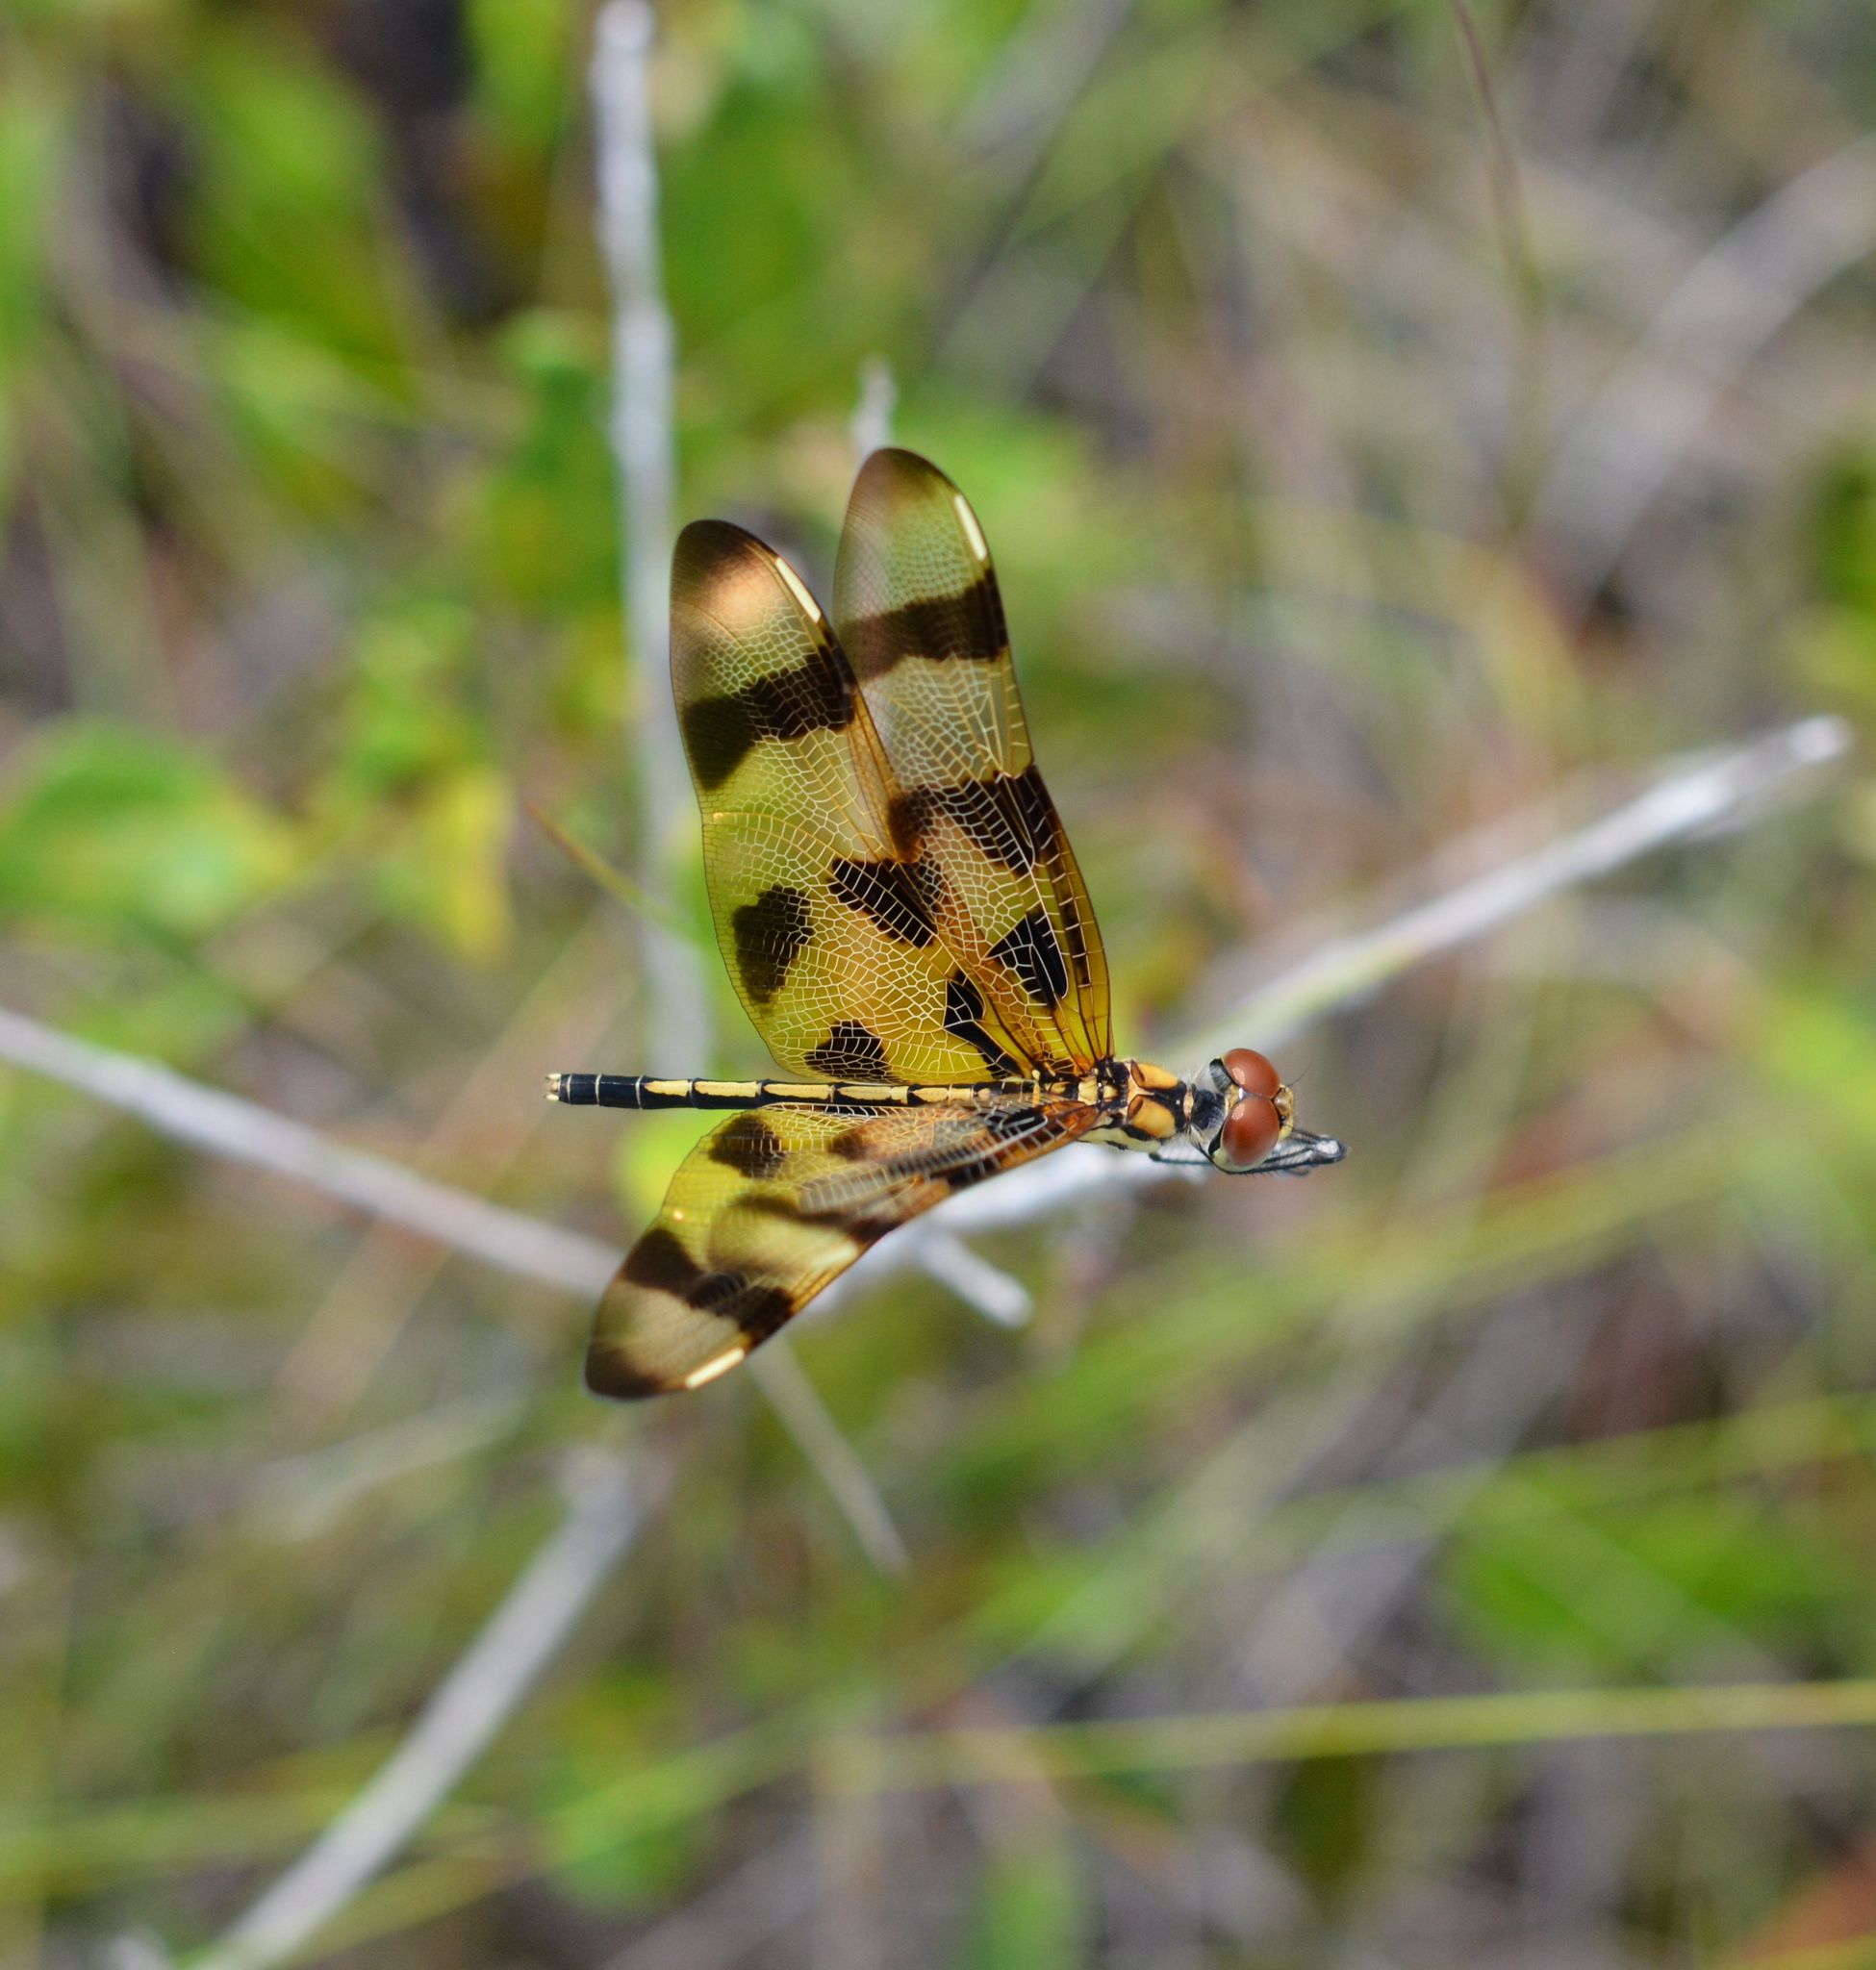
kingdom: Animalia
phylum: Arthropoda
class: Insecta
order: Odonata
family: Libellulidae
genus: Celithemis
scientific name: Celithemis eponina
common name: Halloween pennant
